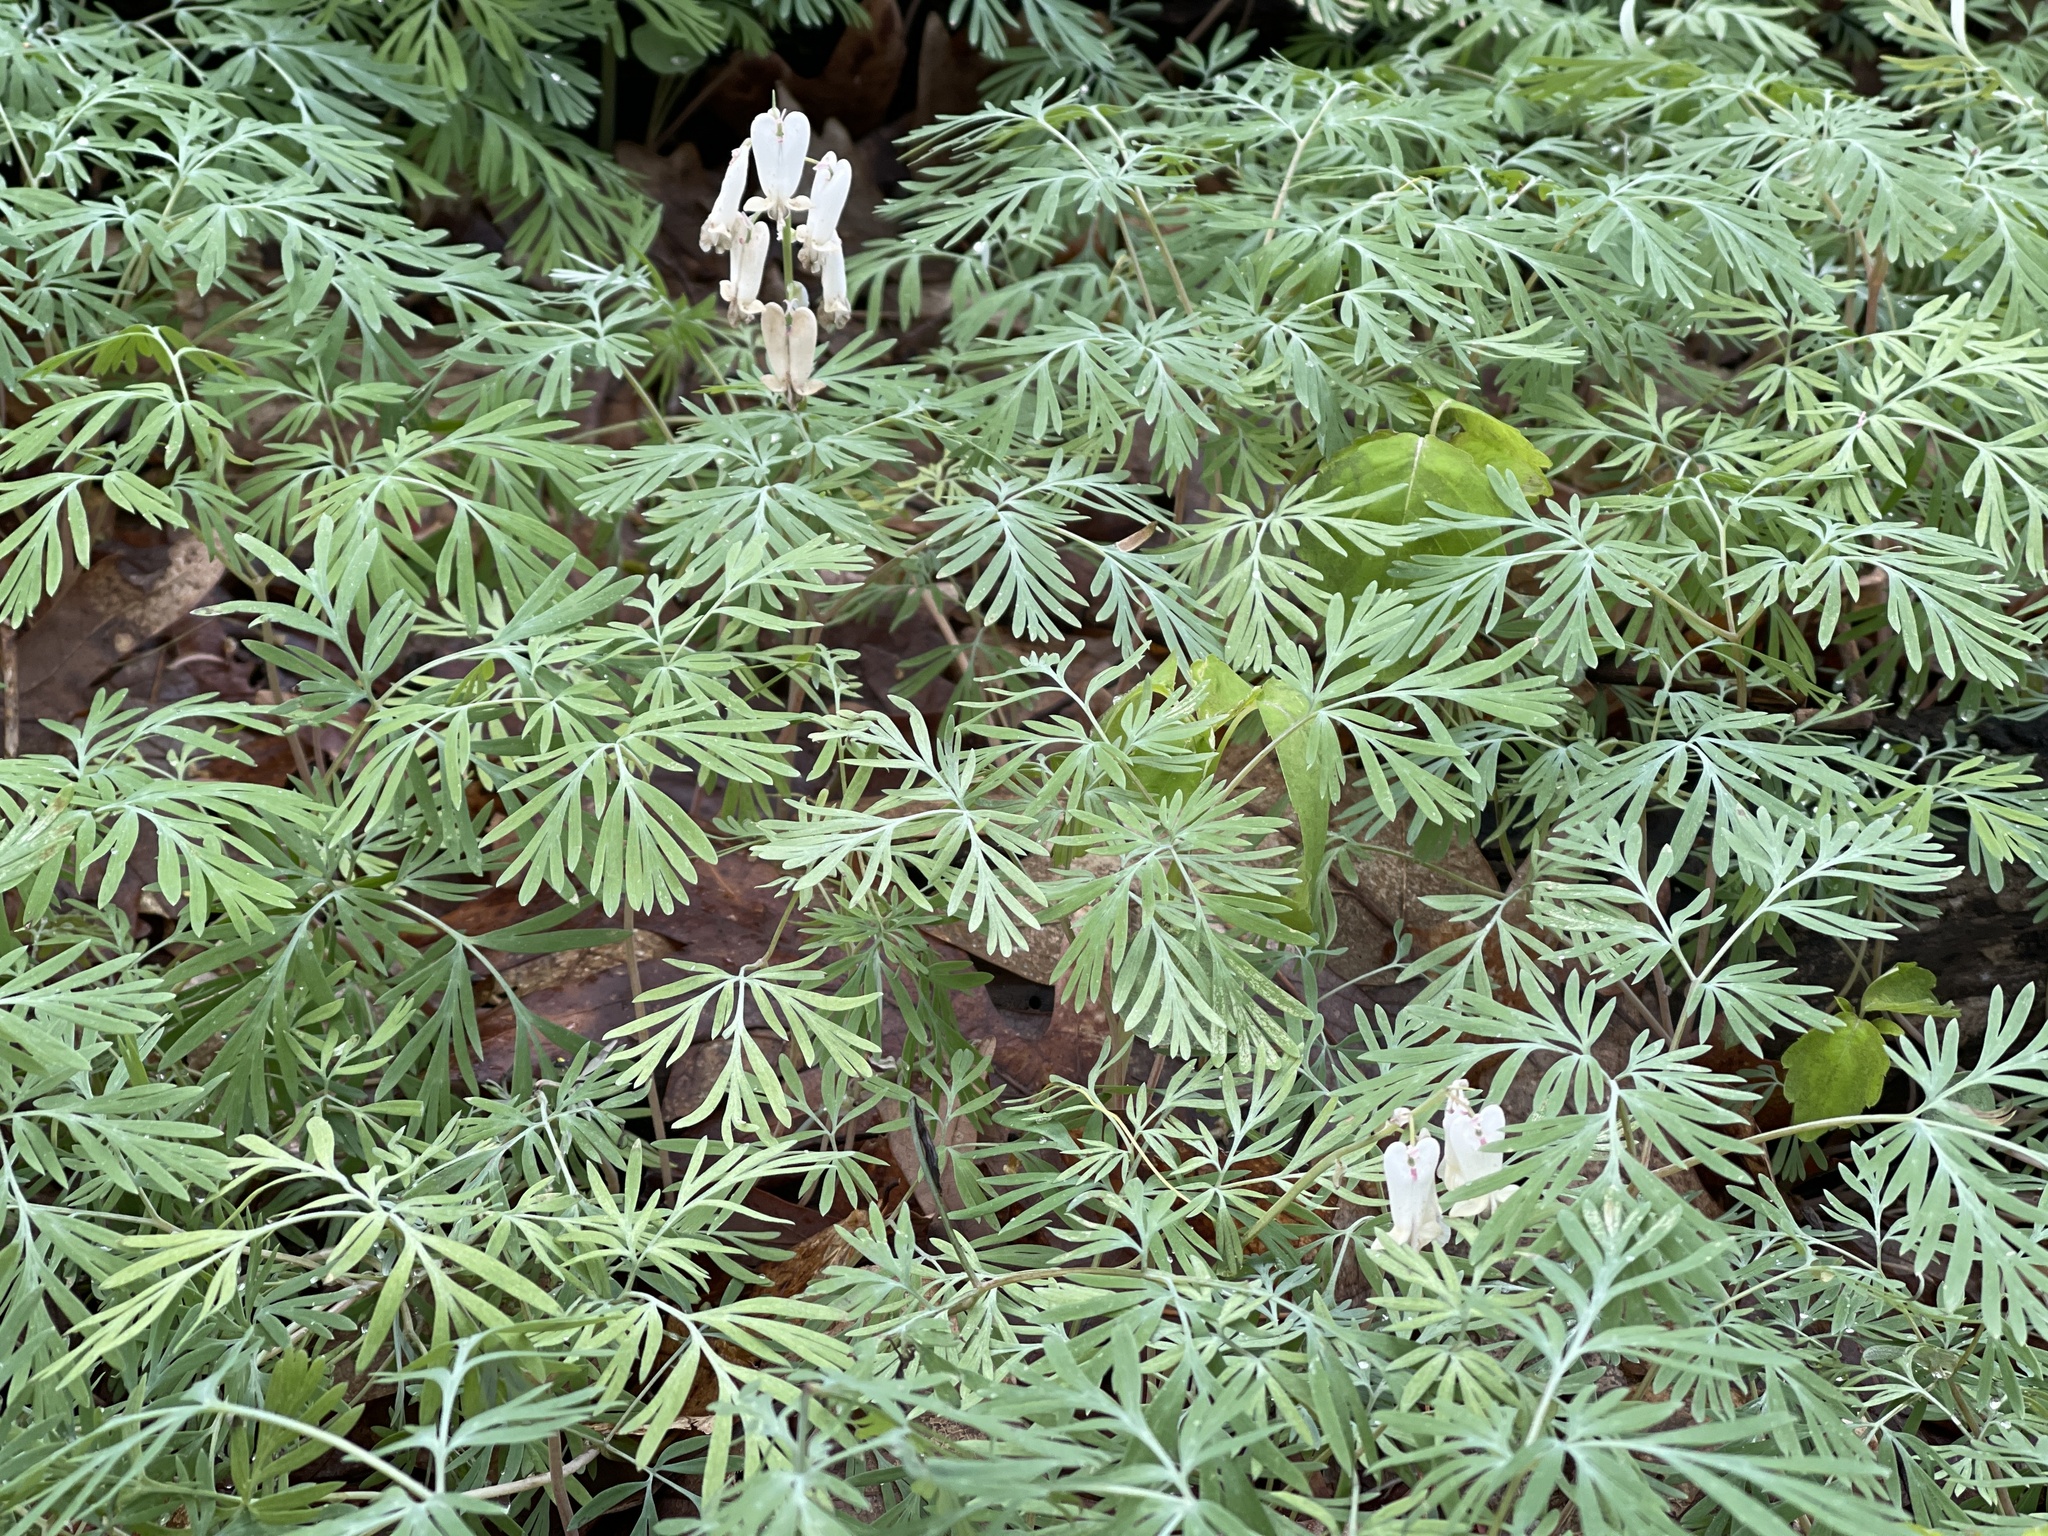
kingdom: Plantae
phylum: Tracheophyta
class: Magnoliopsida
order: Ranunculales
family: Papaveraceae
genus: Dicentra
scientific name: Dicentra canadensis
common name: Squirrel-corn
